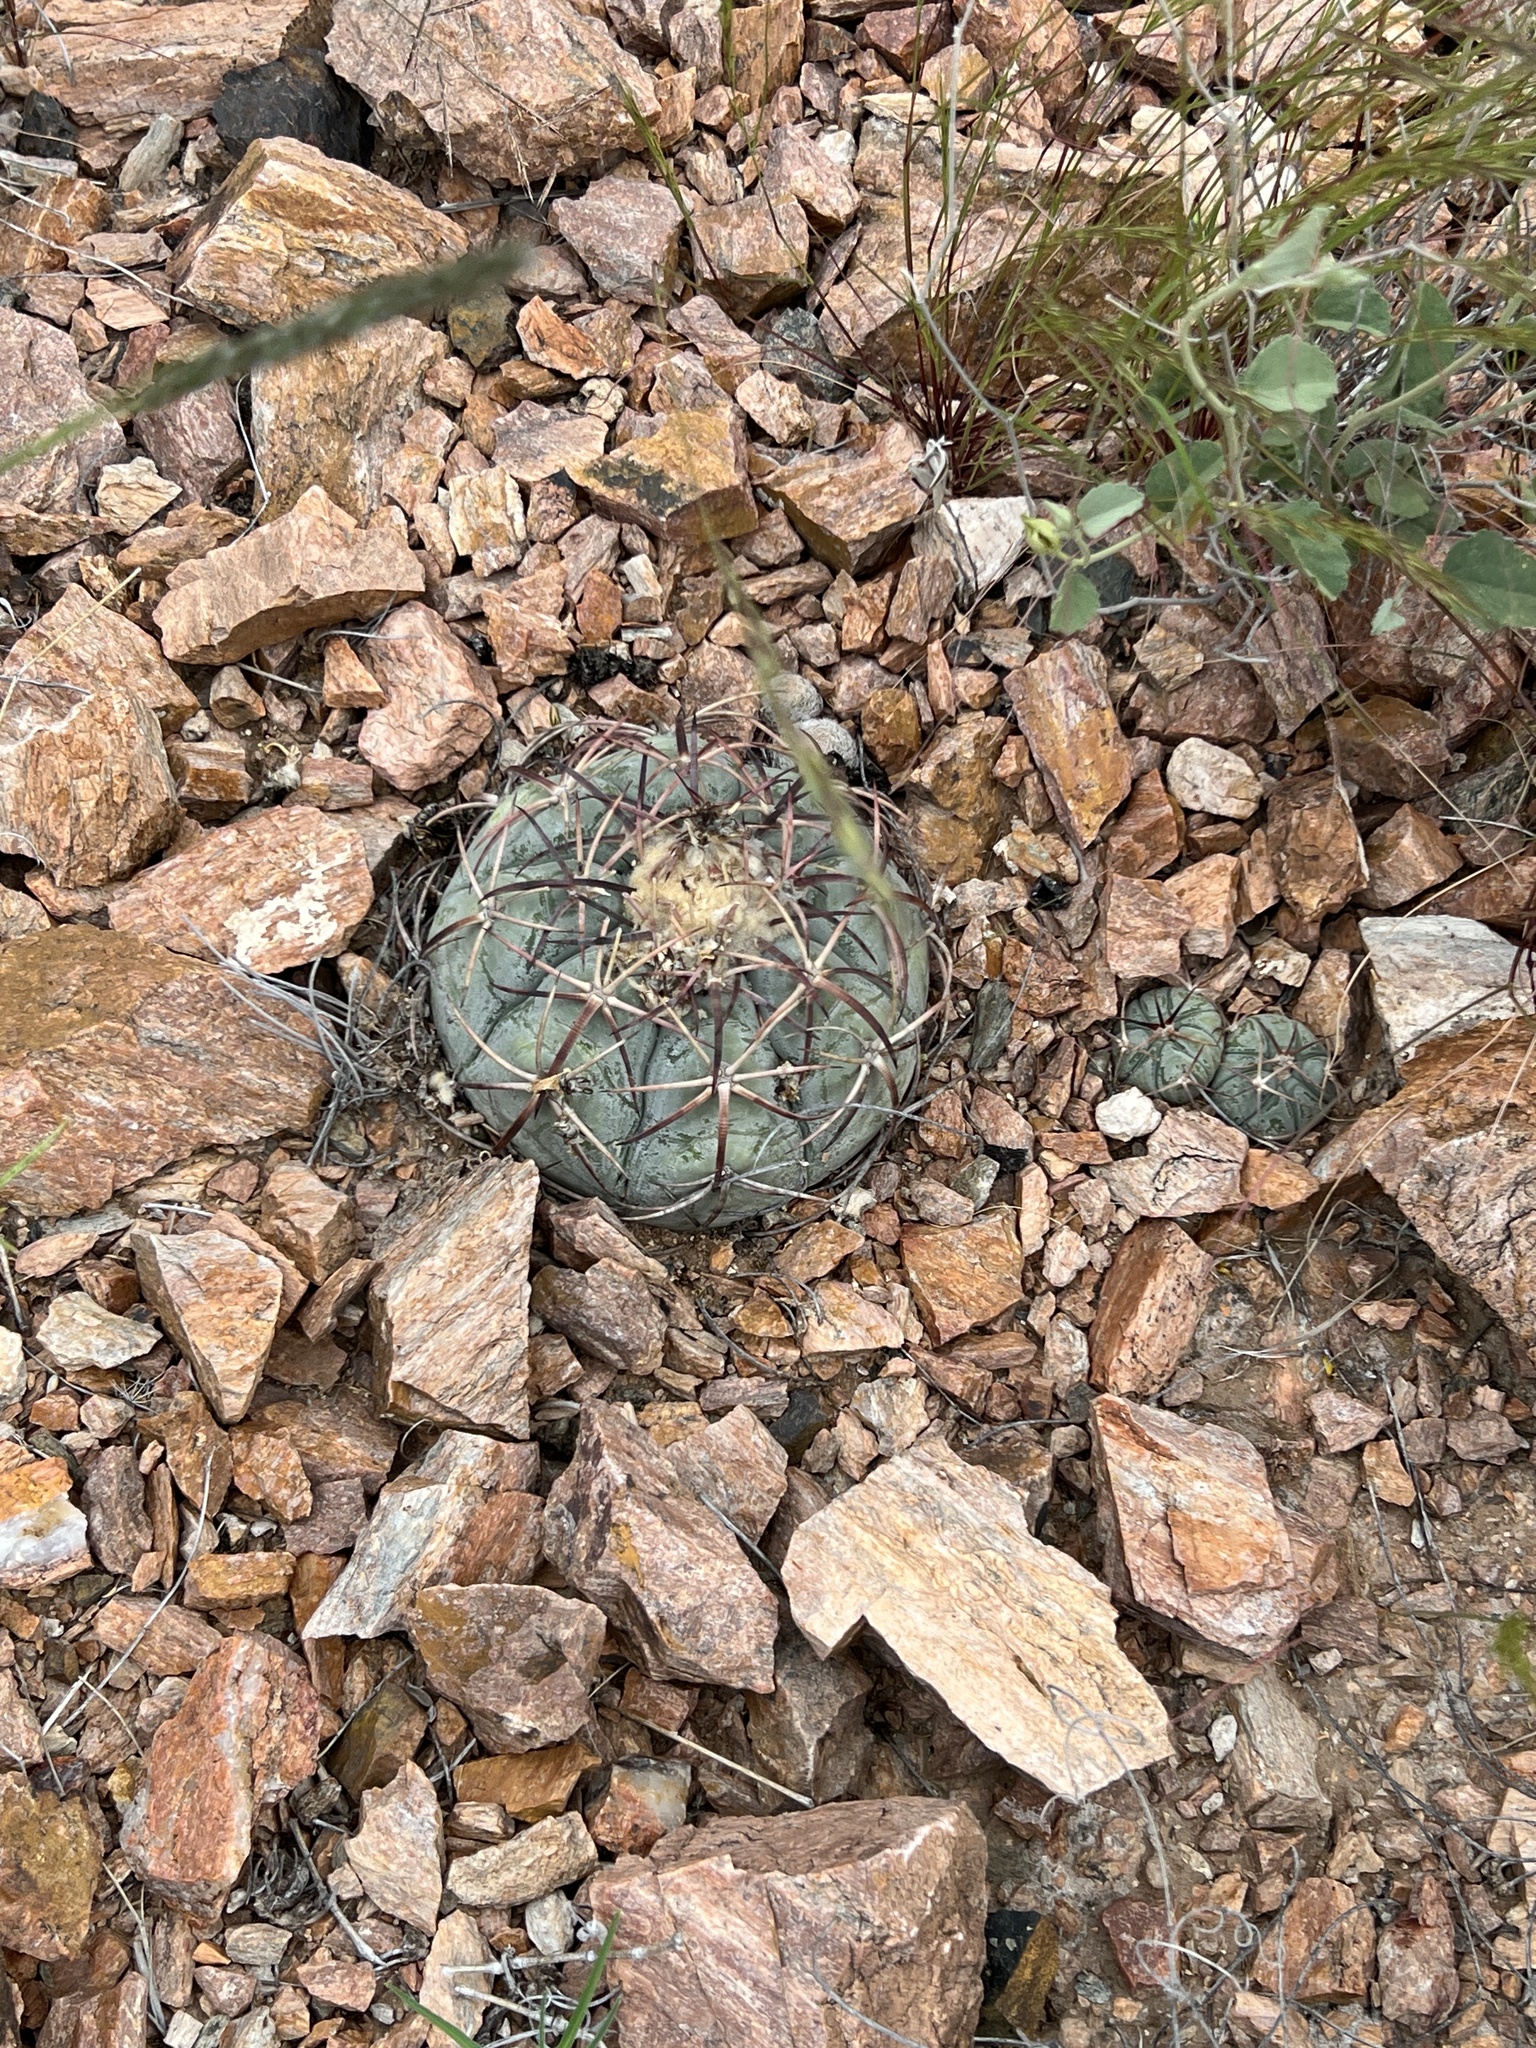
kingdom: Plantae
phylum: Tracheophyta
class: Magnoliopsida
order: Caryophyllales
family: Cactaceae
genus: Echinocactus
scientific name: Echinocactus horizonthalonius
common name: Devilshead
